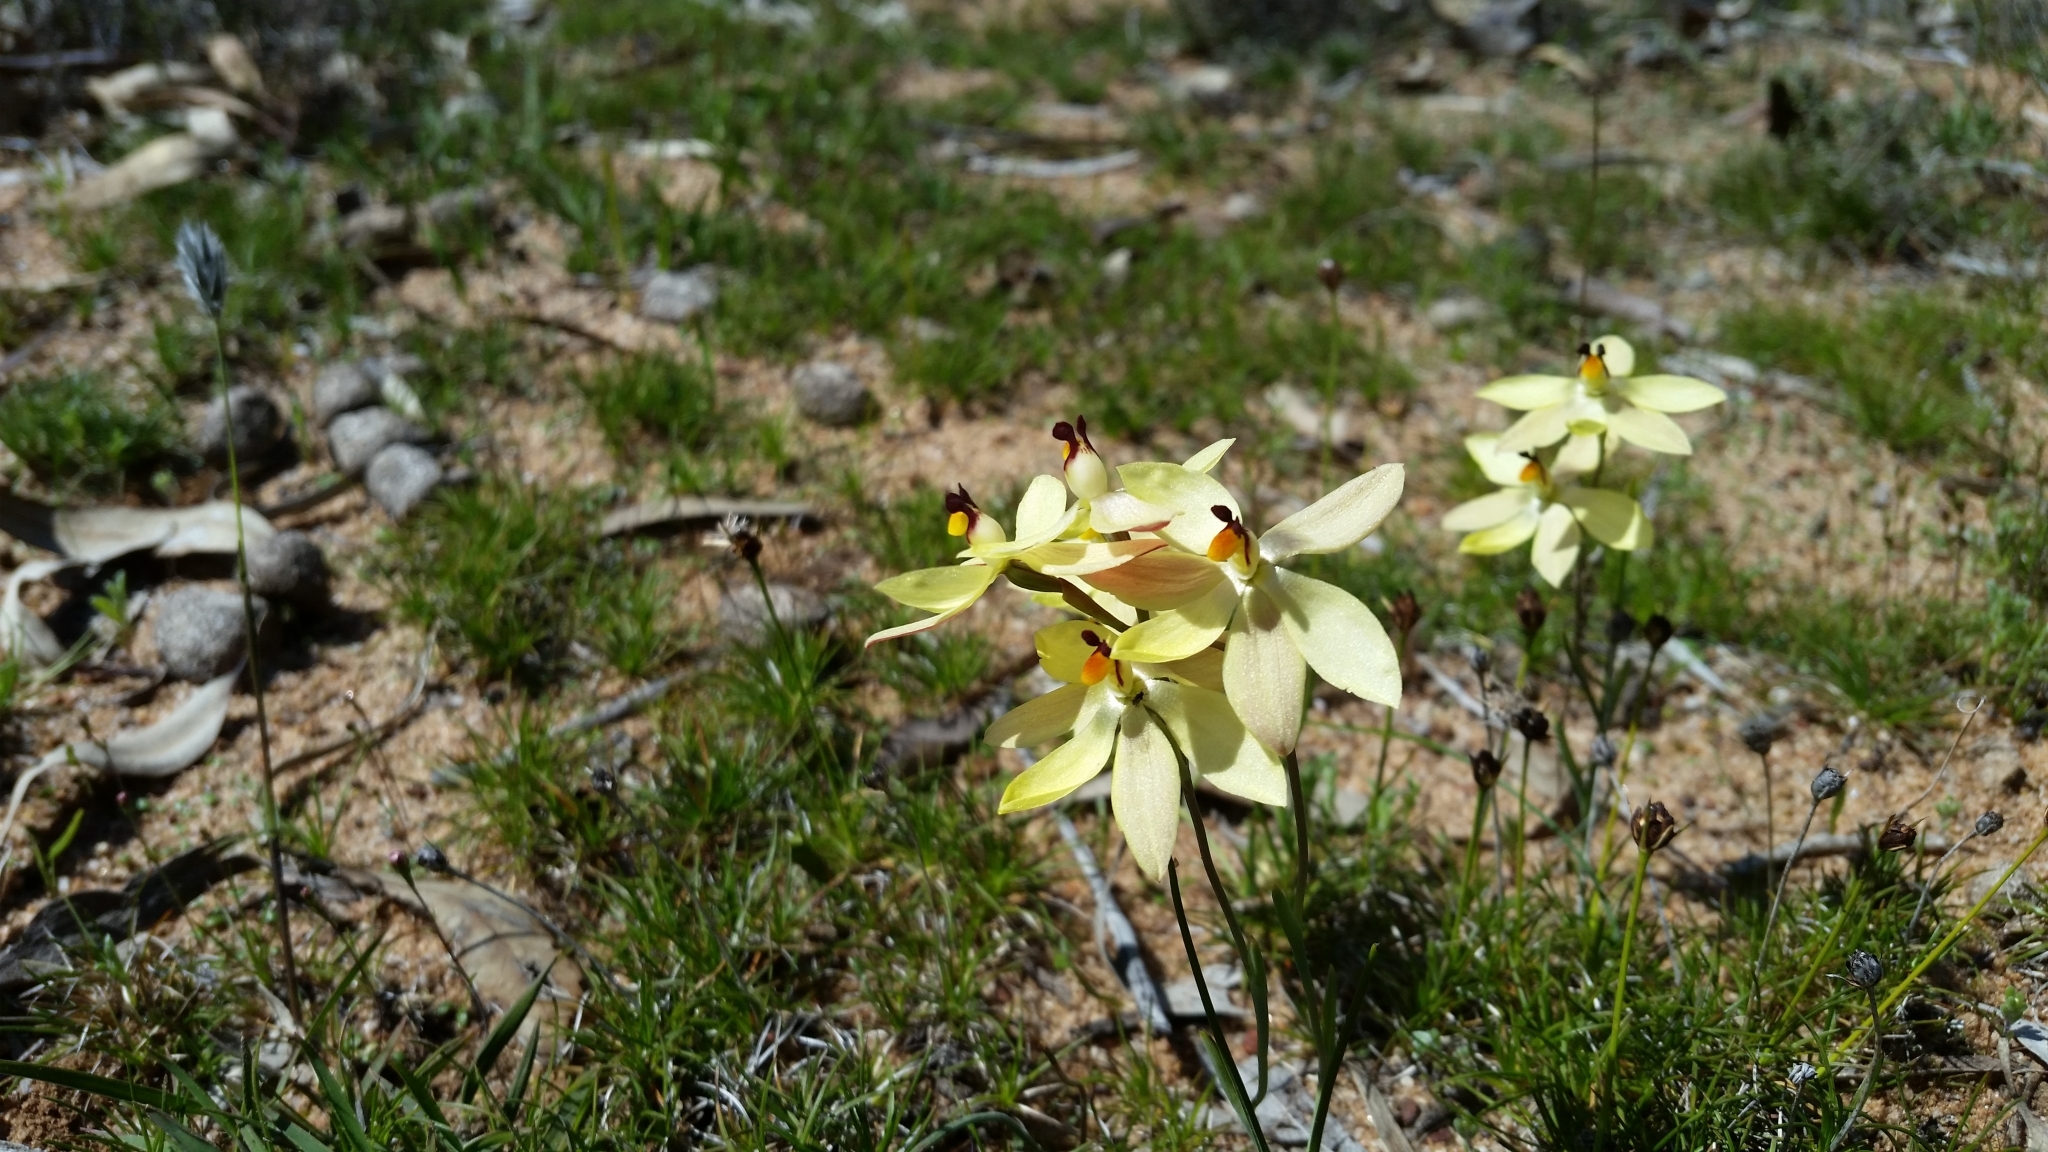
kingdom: Plantae
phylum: Tracheophyta
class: Liliopsida
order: Asparagales
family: Orchidaceae
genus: Thelymitra
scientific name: Thelymitra antennifera
